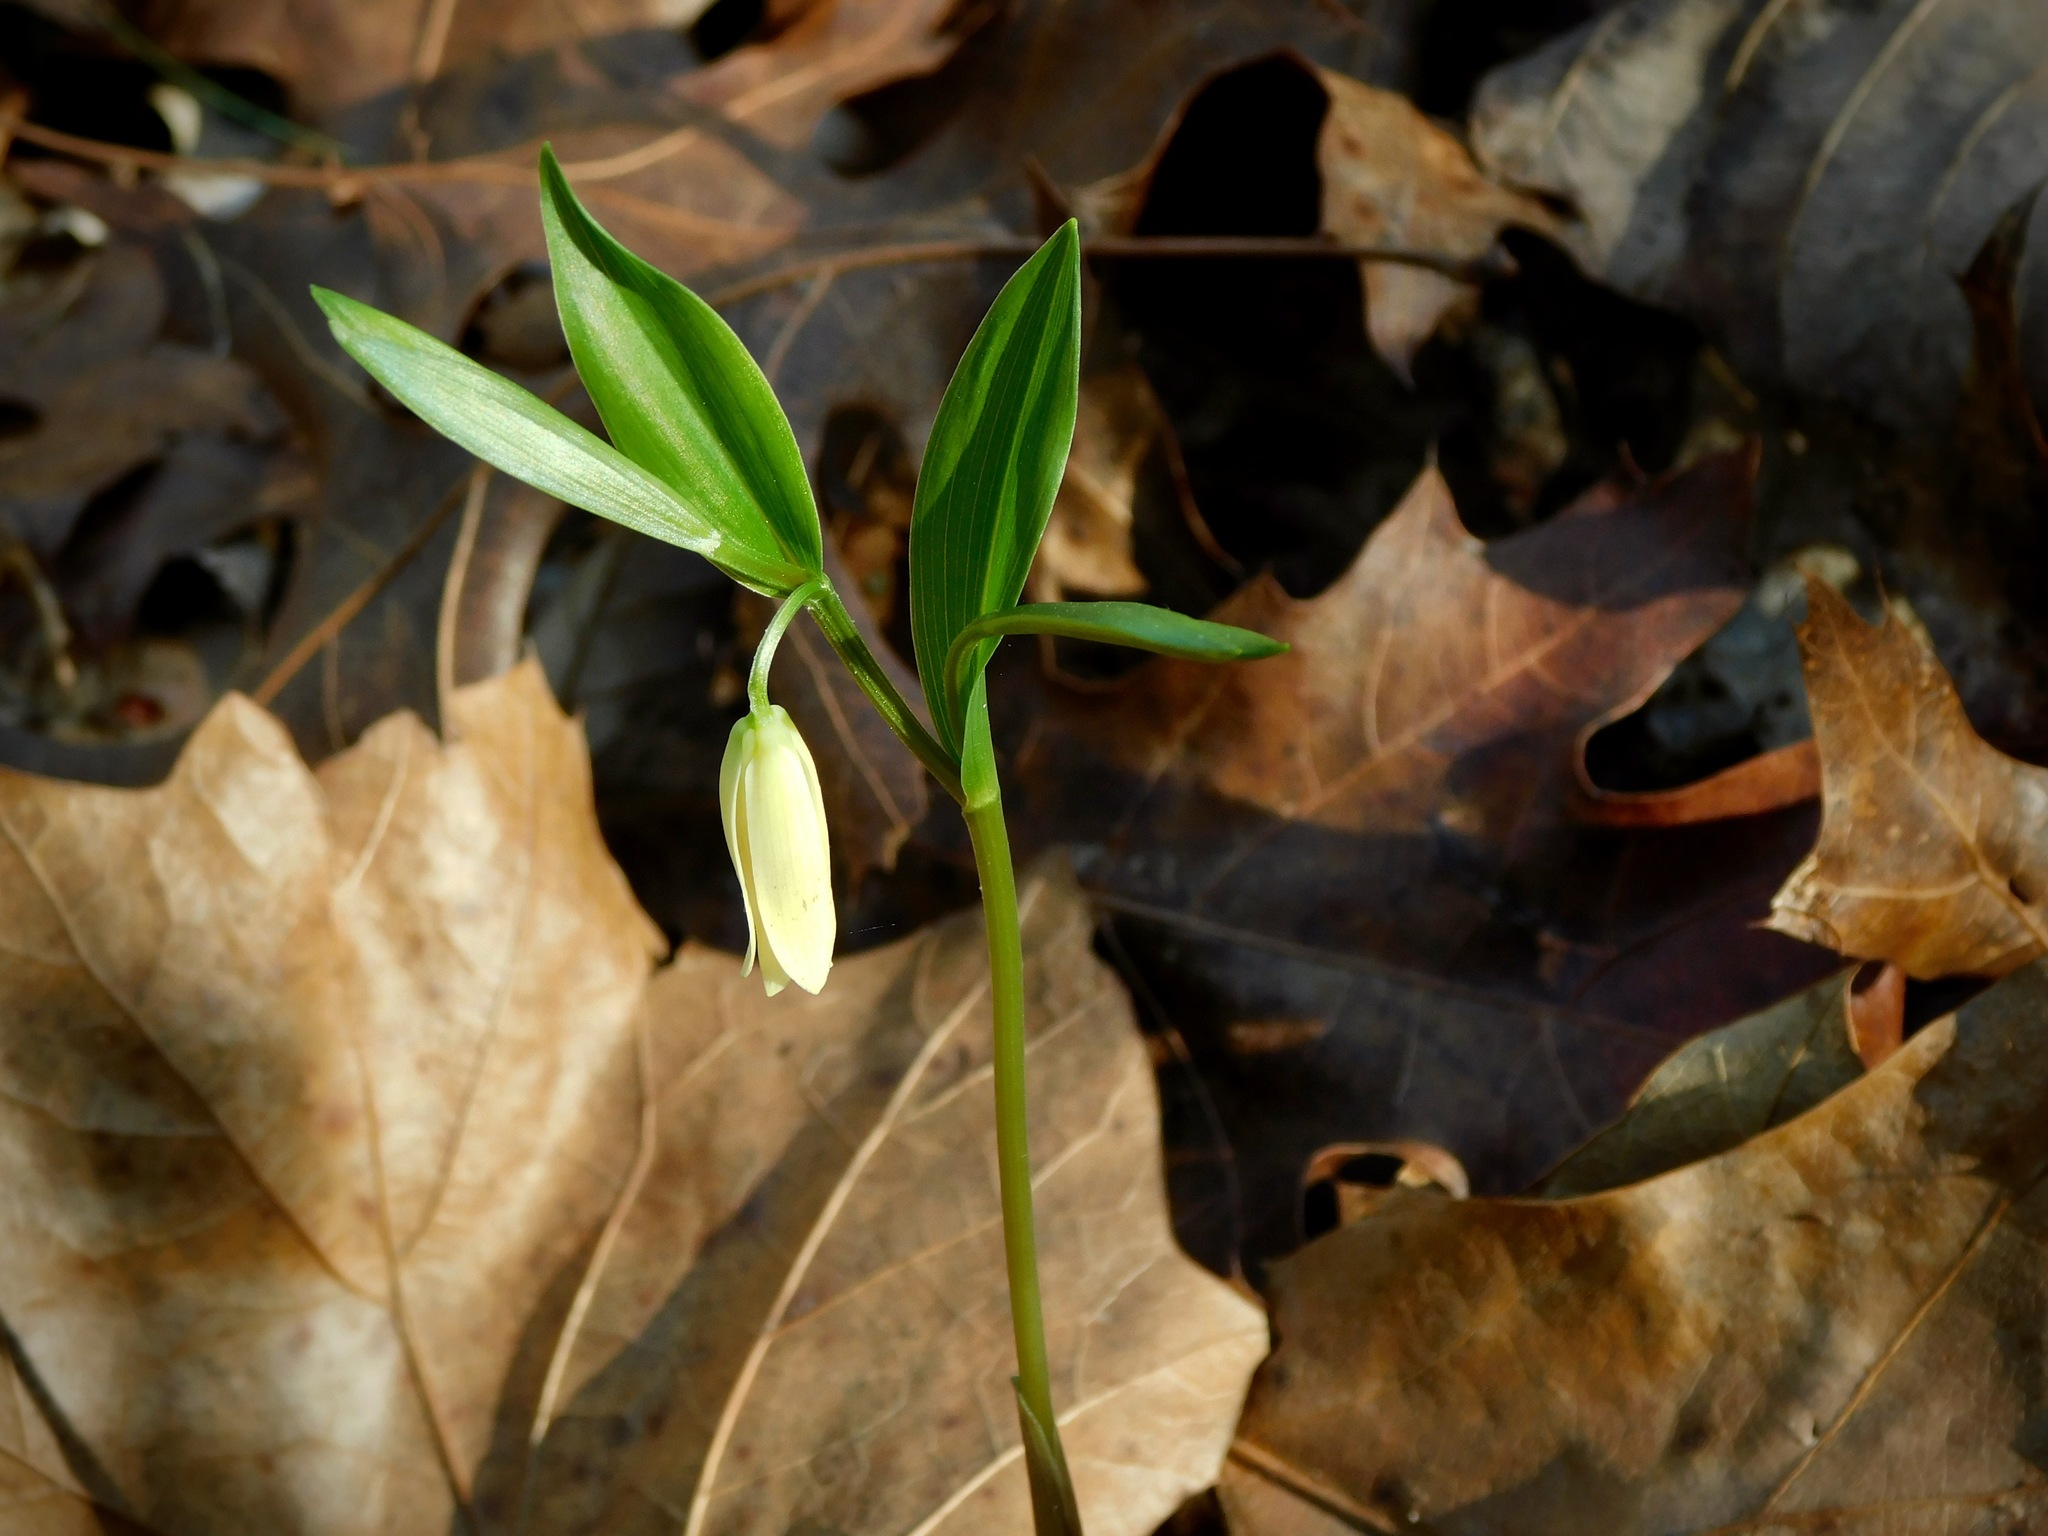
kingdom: Plantae
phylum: Tracheophyta
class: Liliopsida
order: Liliales
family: Colchicaceae
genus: Uvularia
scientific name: Uvularia puberula
